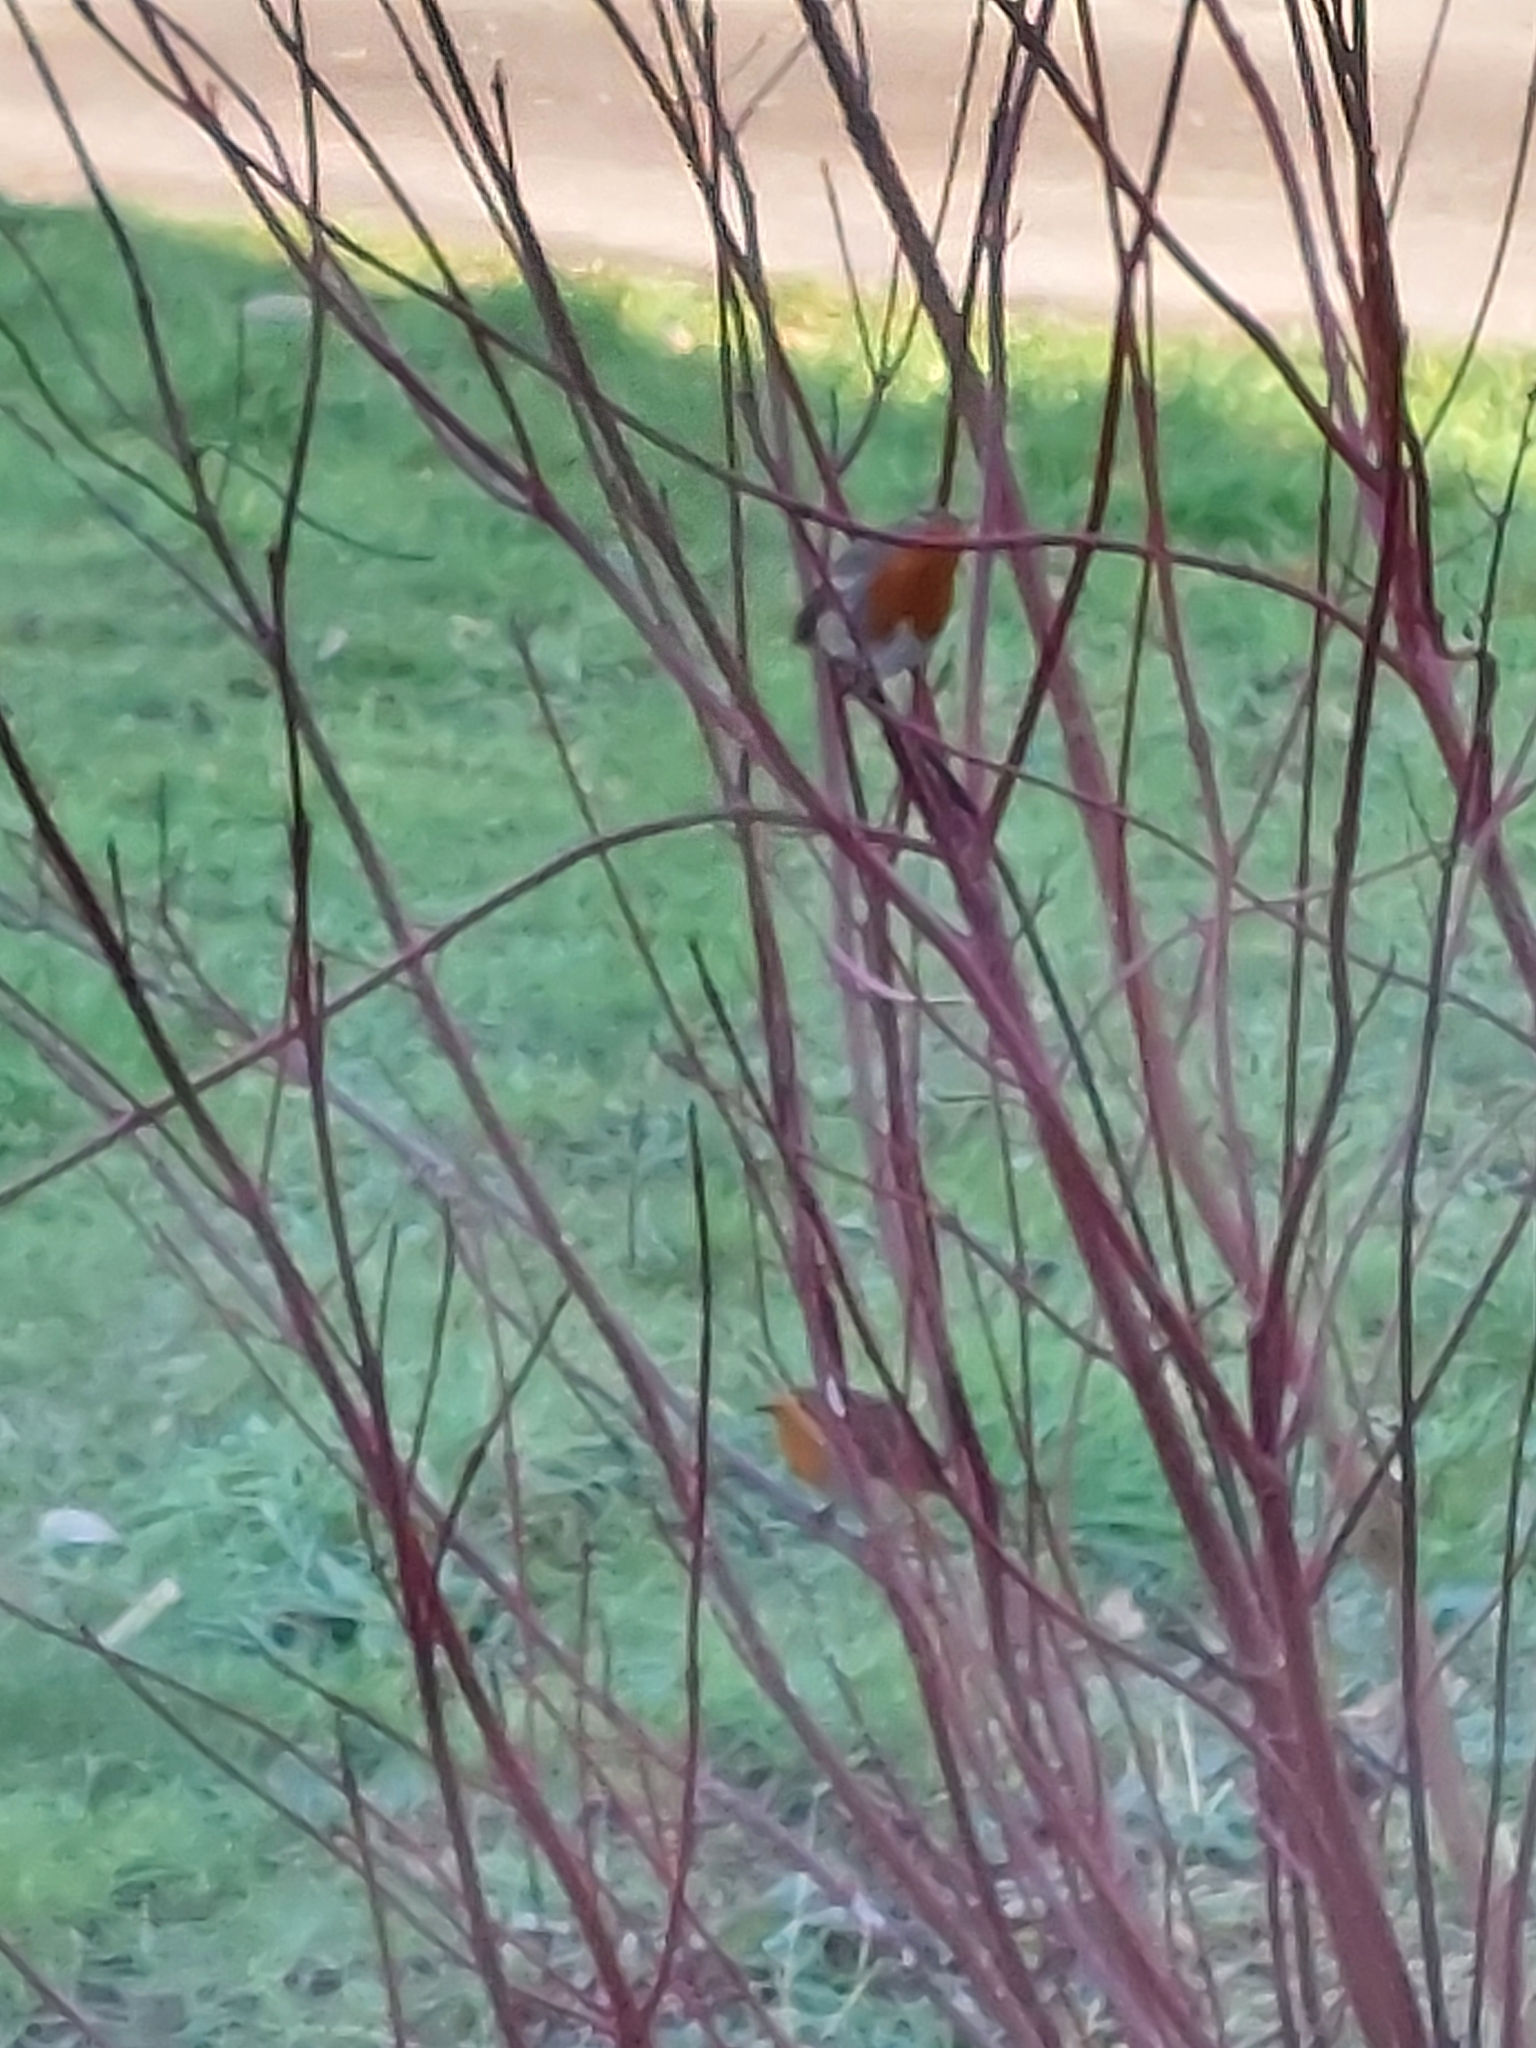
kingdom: Animalia
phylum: Chordata
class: Aves
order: Passeriformes
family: Muscicapidae
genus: Erithacus
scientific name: Erithacus rubecula
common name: European robin
